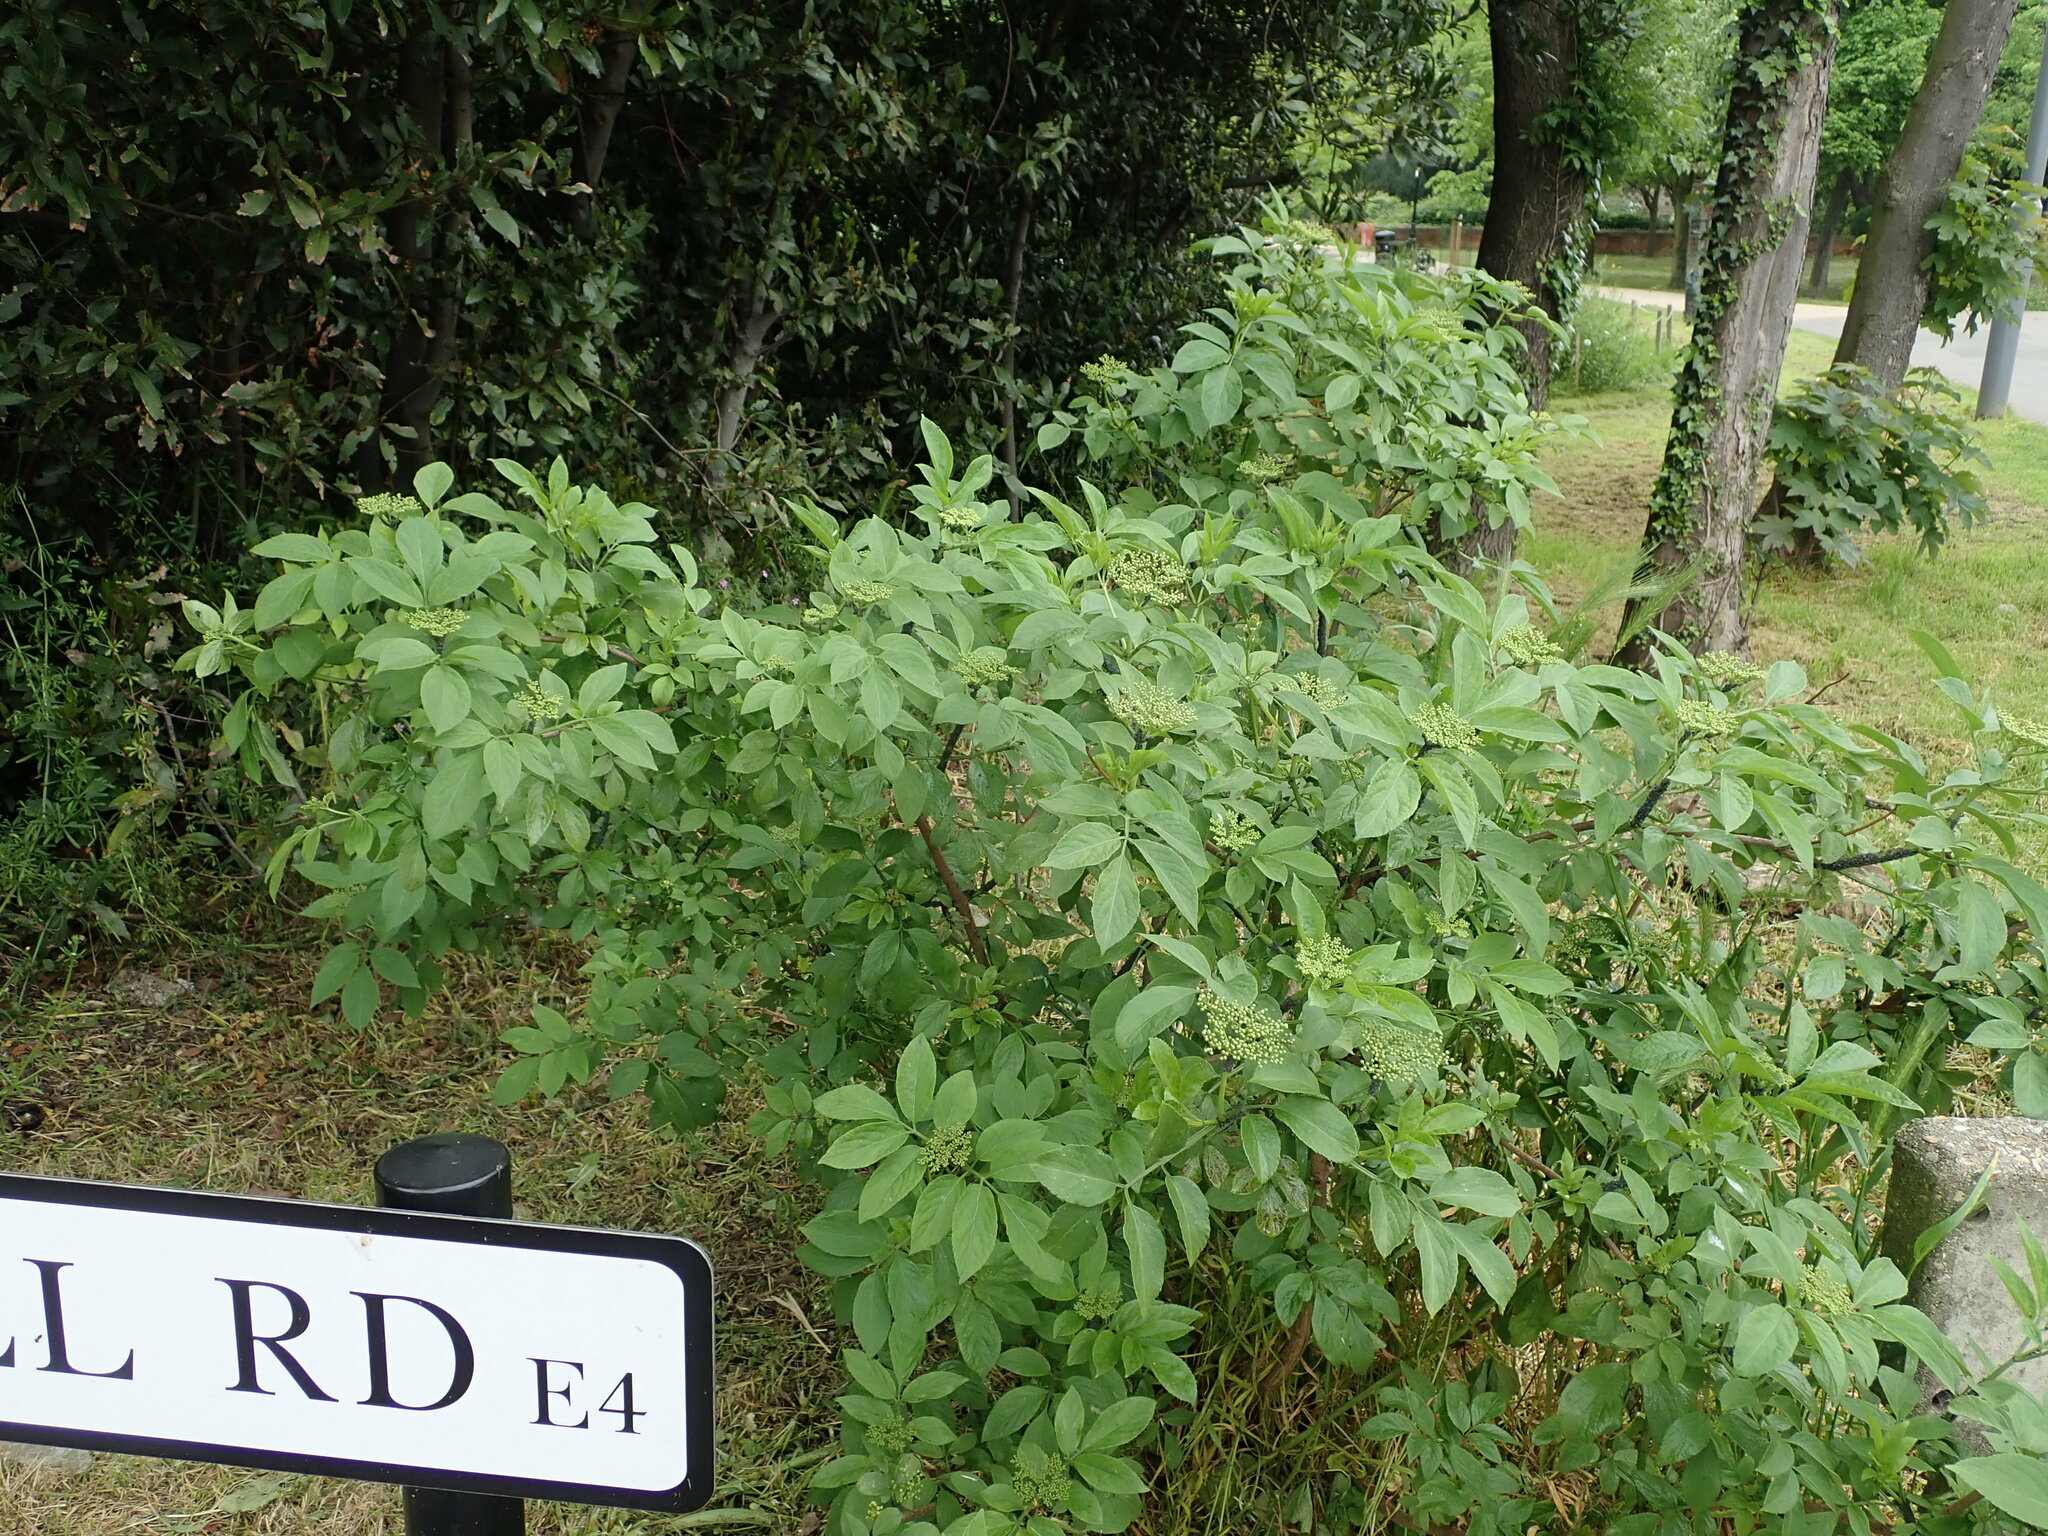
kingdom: Plantae
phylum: Tracheophyta
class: Magnoliopsida
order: Dipsacales
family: Viburnaceae
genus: Sambucus
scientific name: Sambucus nigra
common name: Elder
